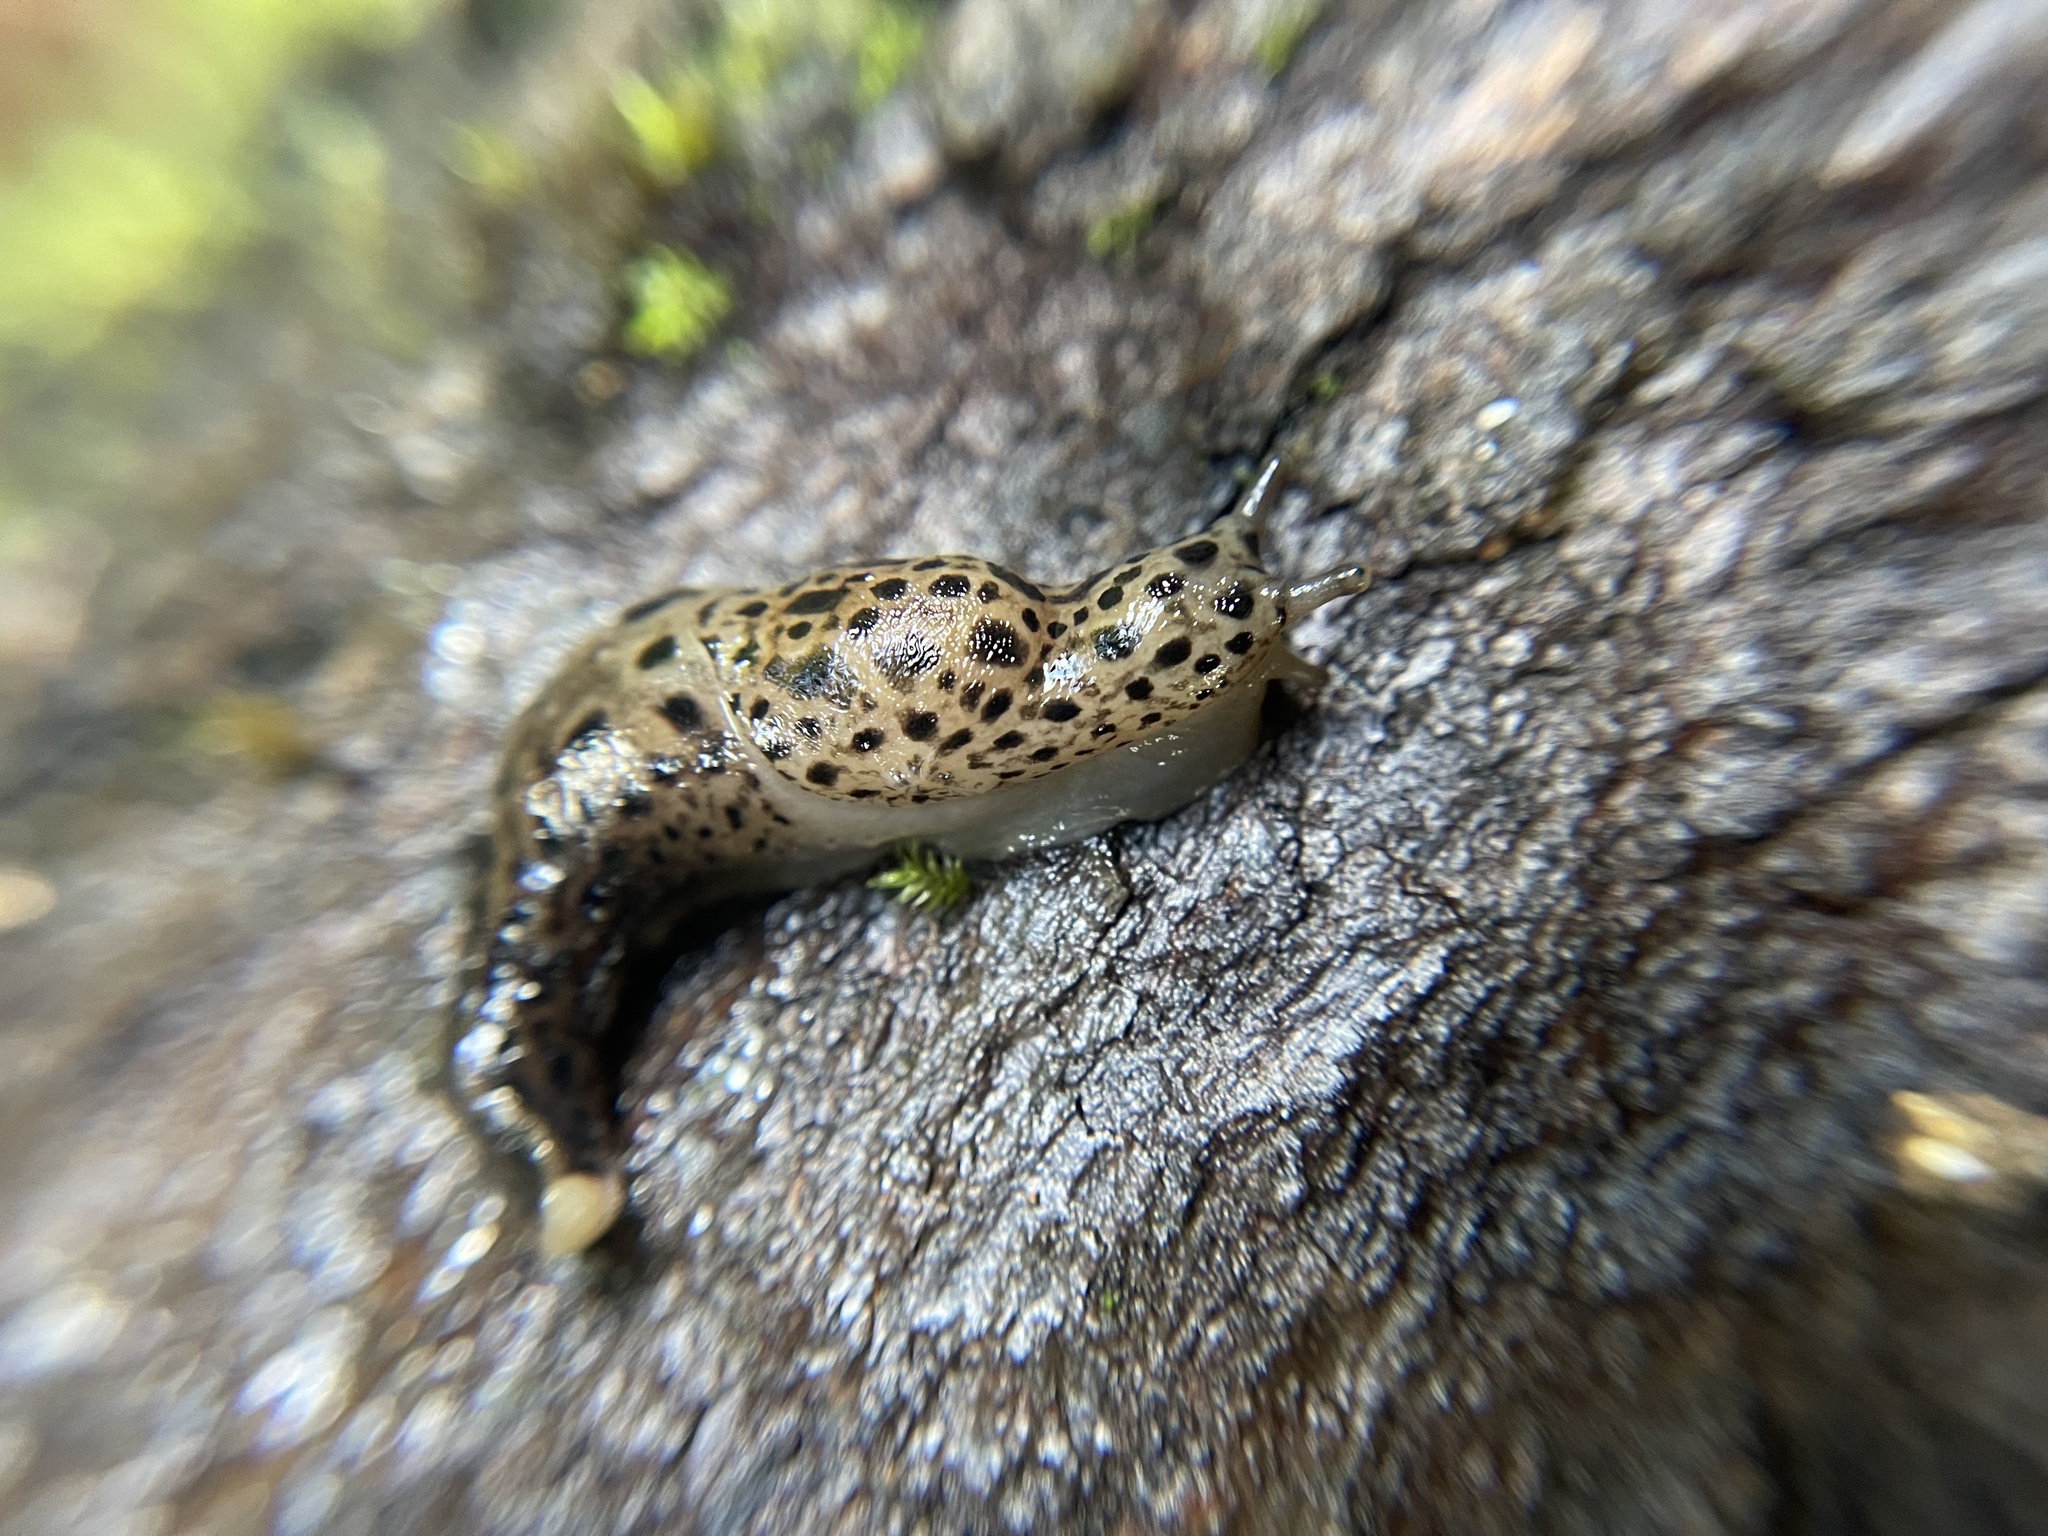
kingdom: Animalia
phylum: Mollusca
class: Gastropoda
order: Stylommatophora
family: Limacidae
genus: Limax
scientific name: Limax maximus
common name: Great grey slug
